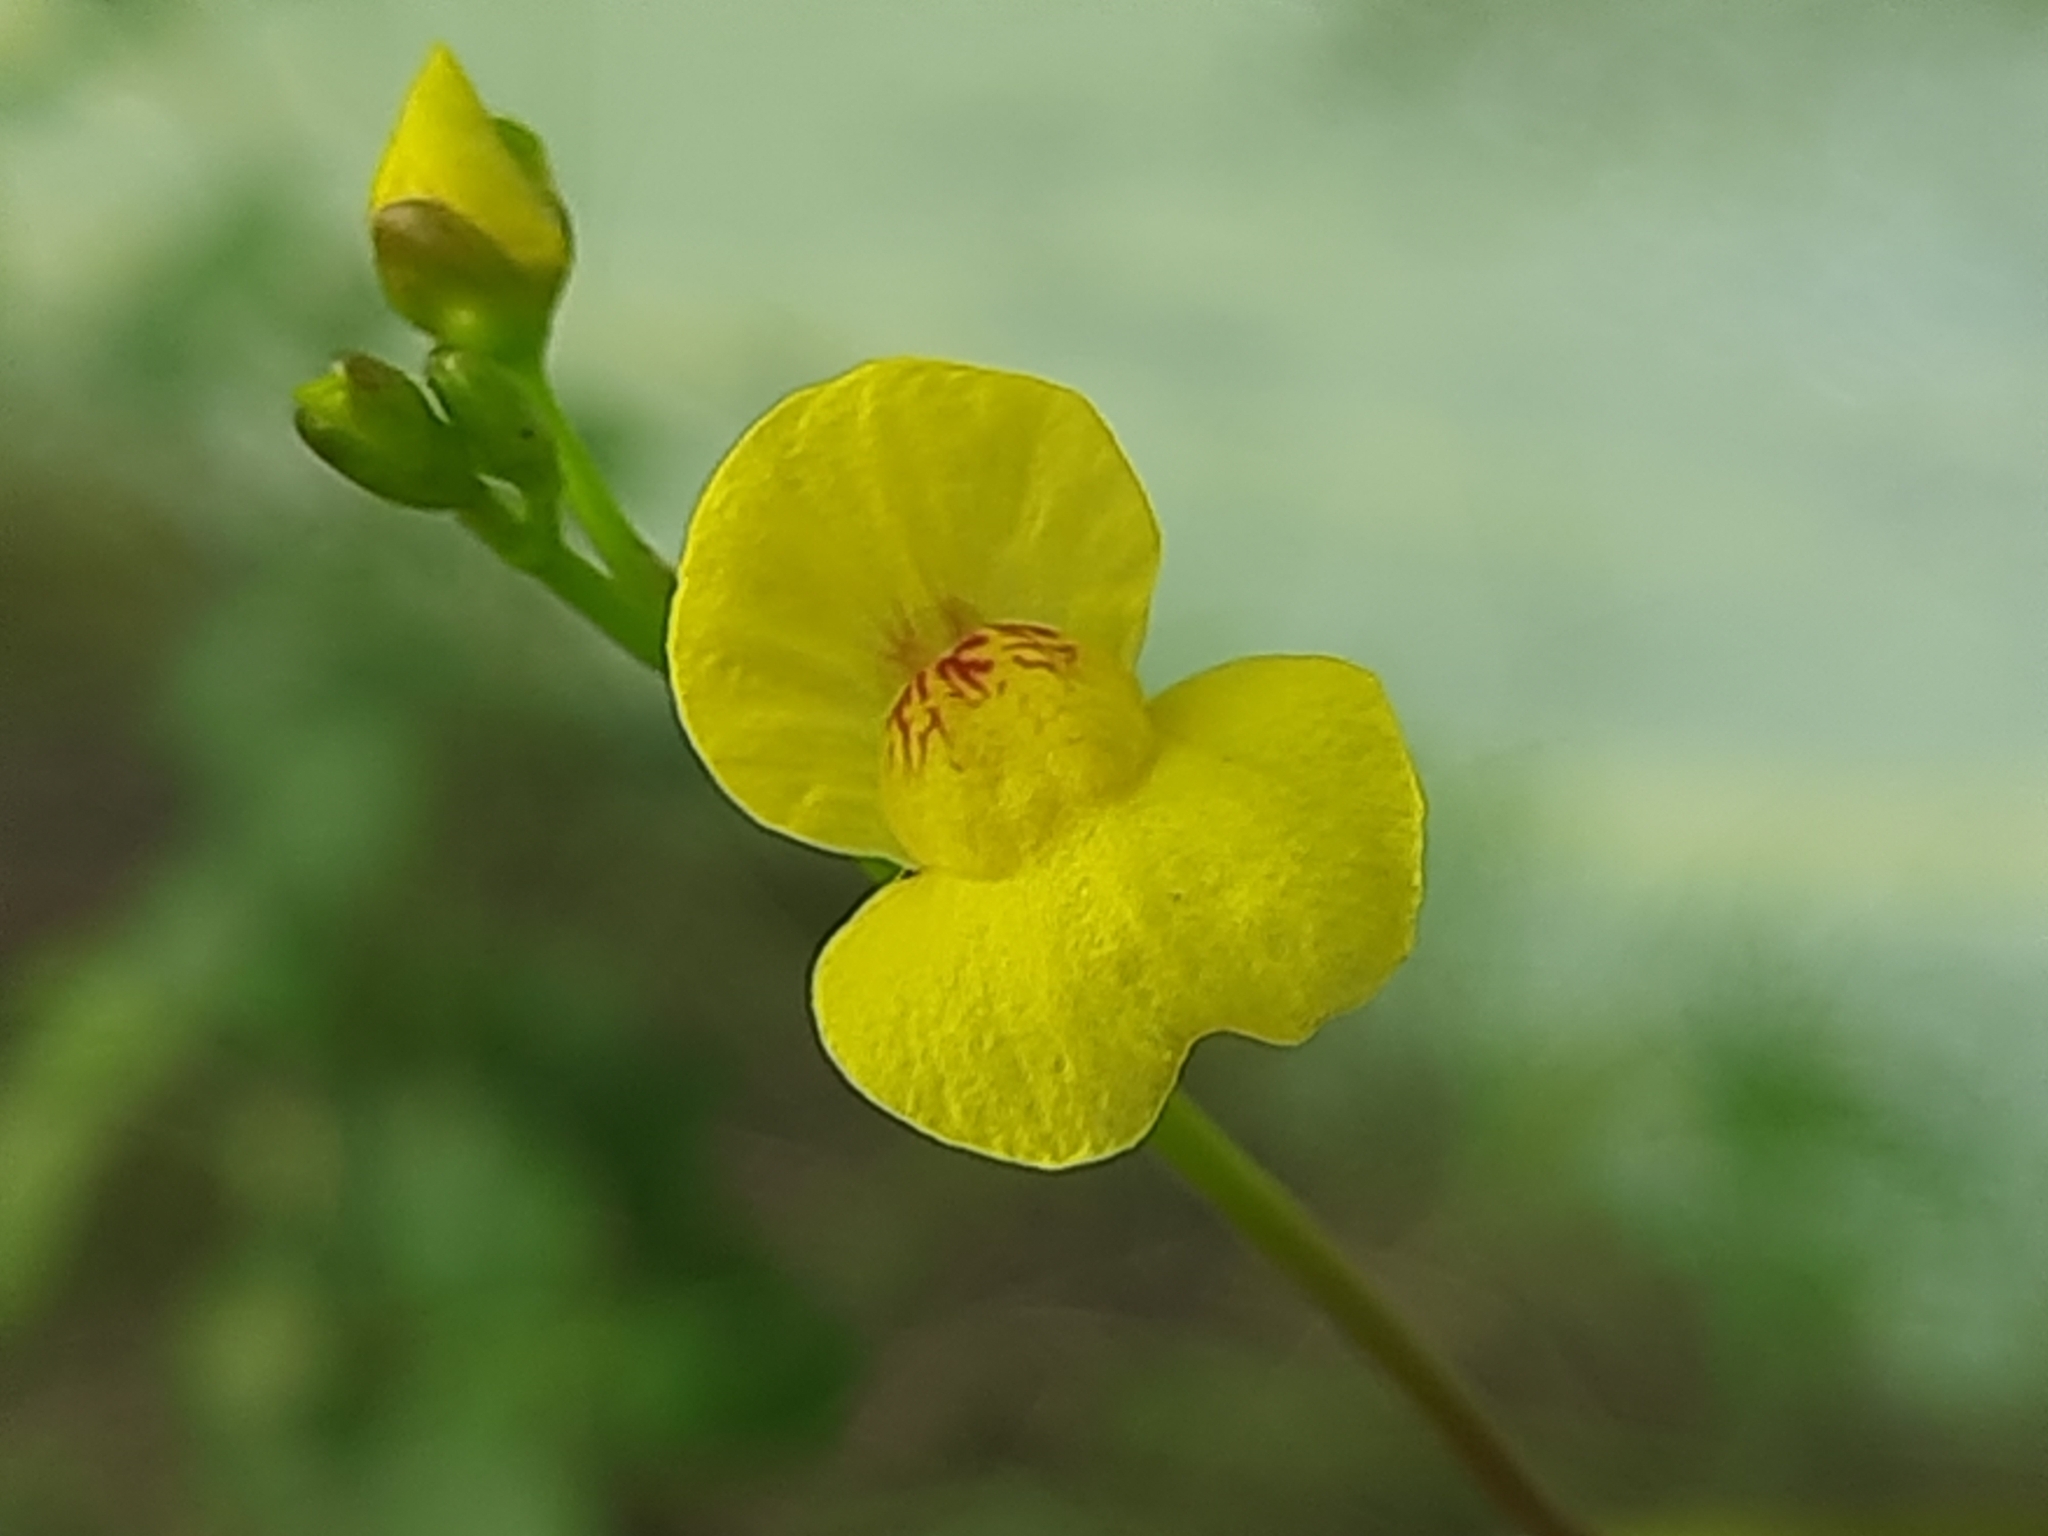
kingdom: Plantae
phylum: Tracheophyta
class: Magnoliopsida
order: Lamiales
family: Lentibulariaceae
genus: Utricularia
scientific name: Utricularia aurea
